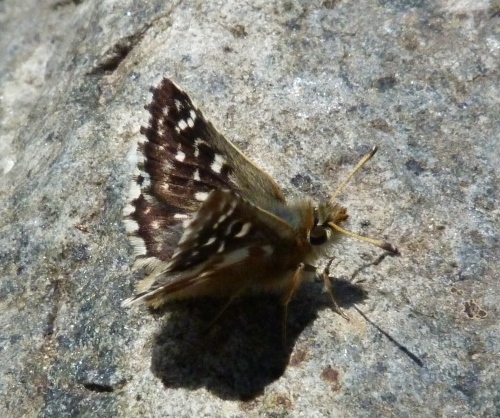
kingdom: Animalia
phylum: Arthropoda
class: Insecta
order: Lepidoptera
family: Hesperiidae
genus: Spialia
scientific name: Spialia sertorius
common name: Red underwing skipper
